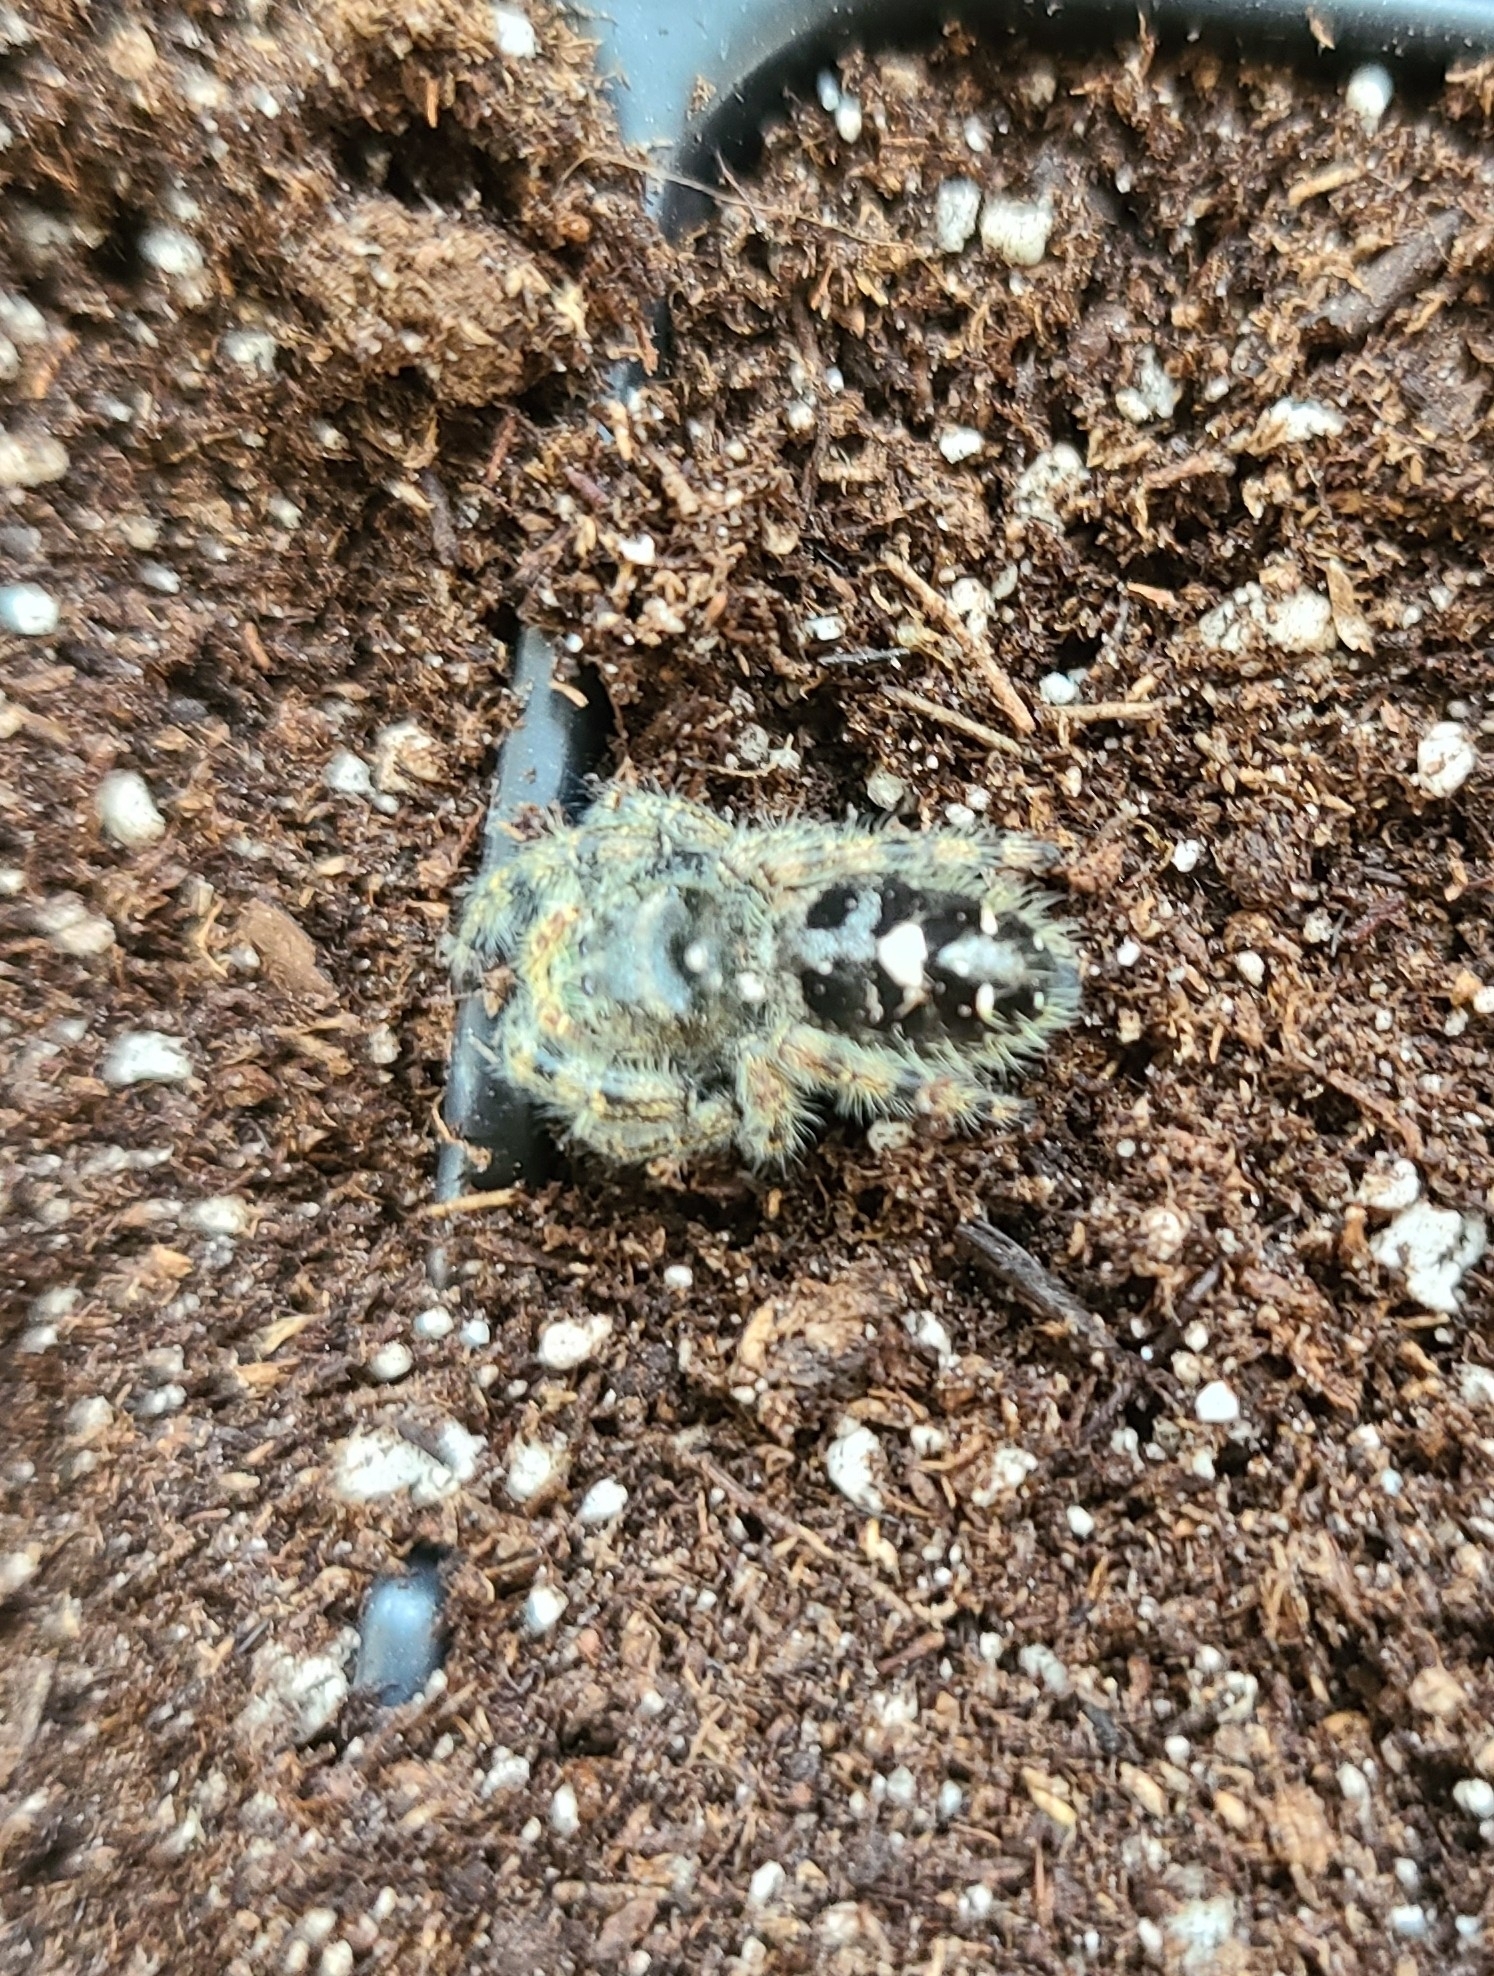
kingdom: Animalia
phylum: Arthropoda
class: Arachnida
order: Araneae
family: Salticidae
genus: Phidippus
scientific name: Phidippus audax
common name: Bold jumper
